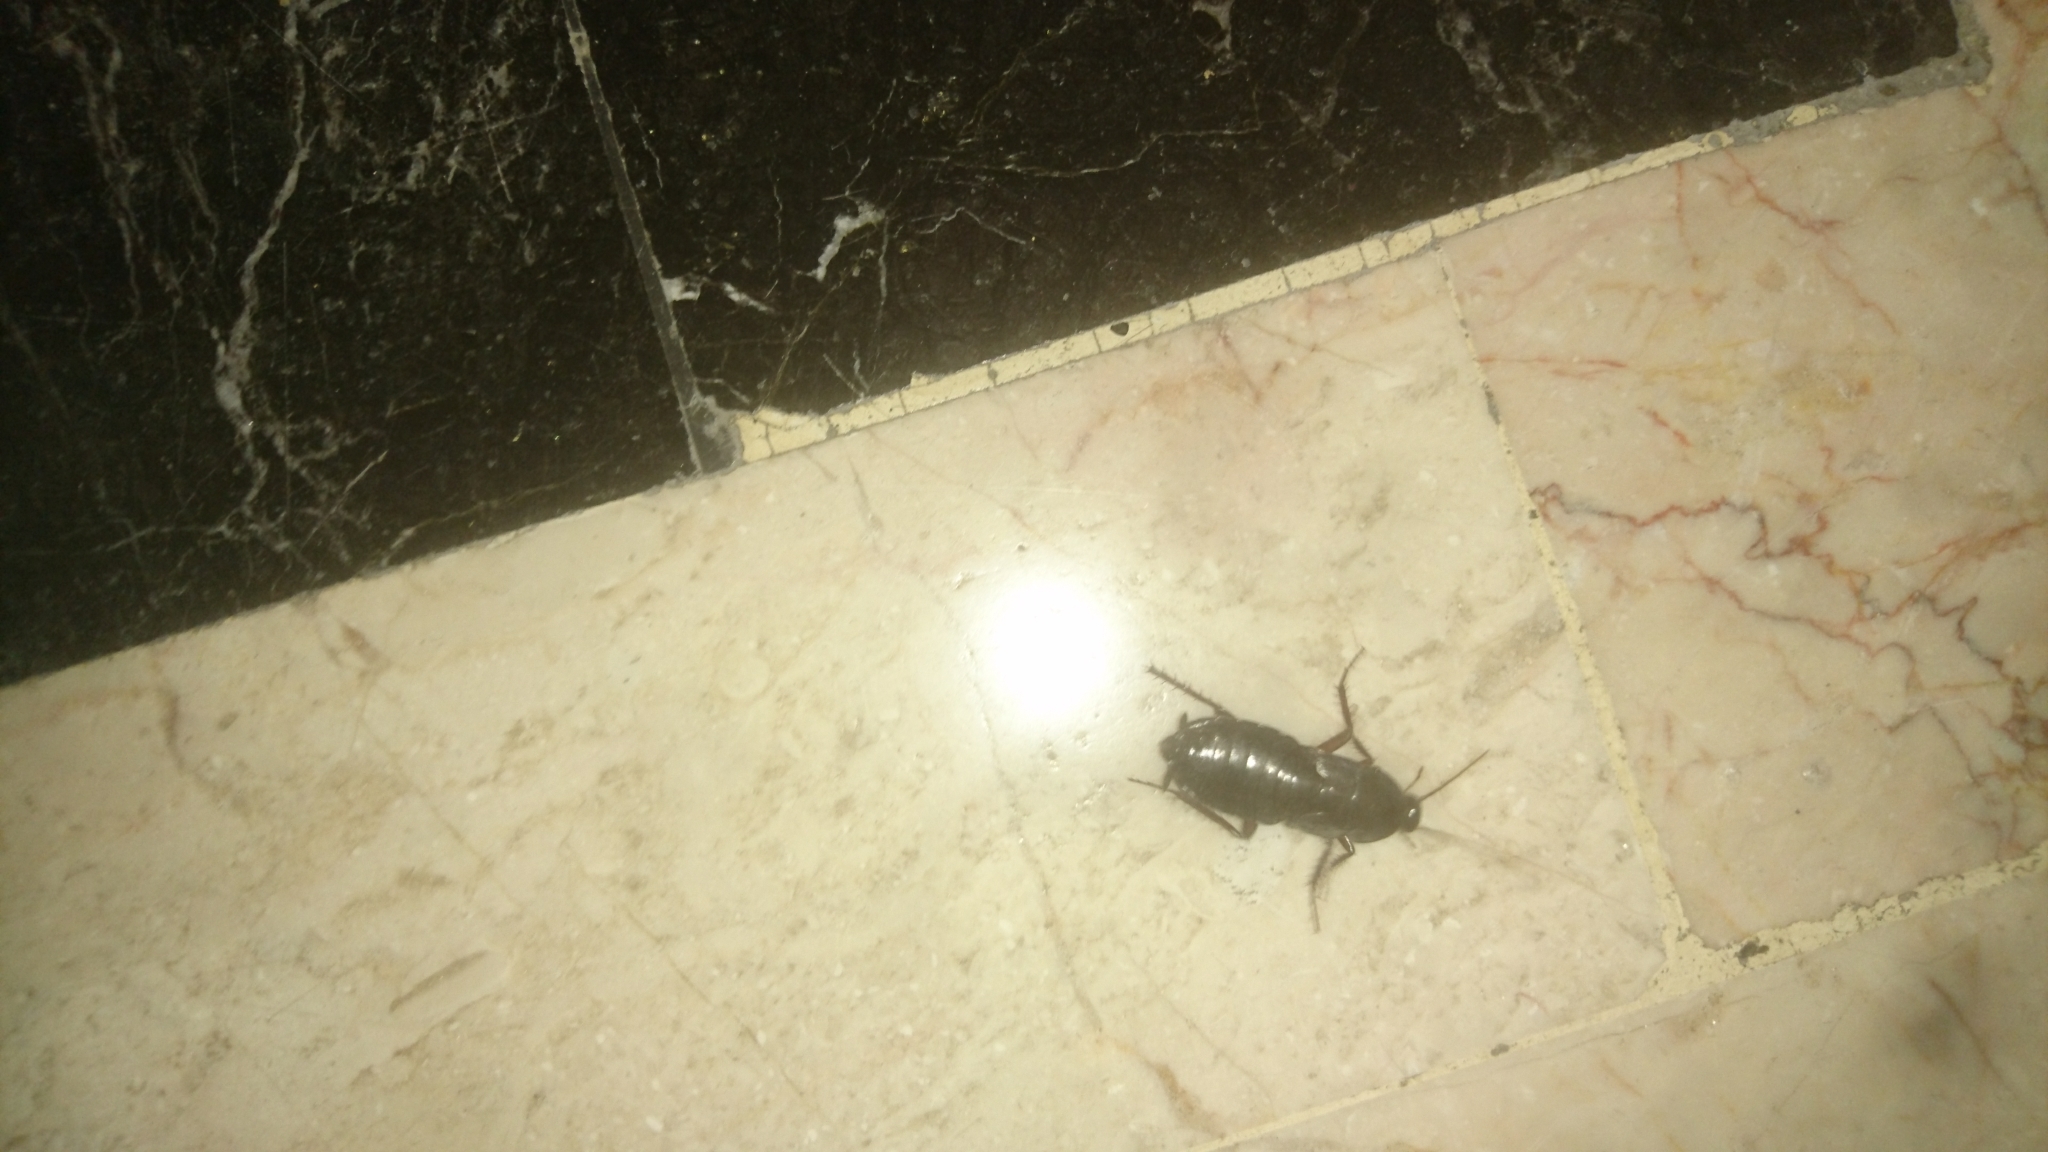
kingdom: Animalia
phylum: Arthropoda
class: Insecta
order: Blattodea
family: Blattidae
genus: Blatta
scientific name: Blatta orientalis
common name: Oriental cockroach
